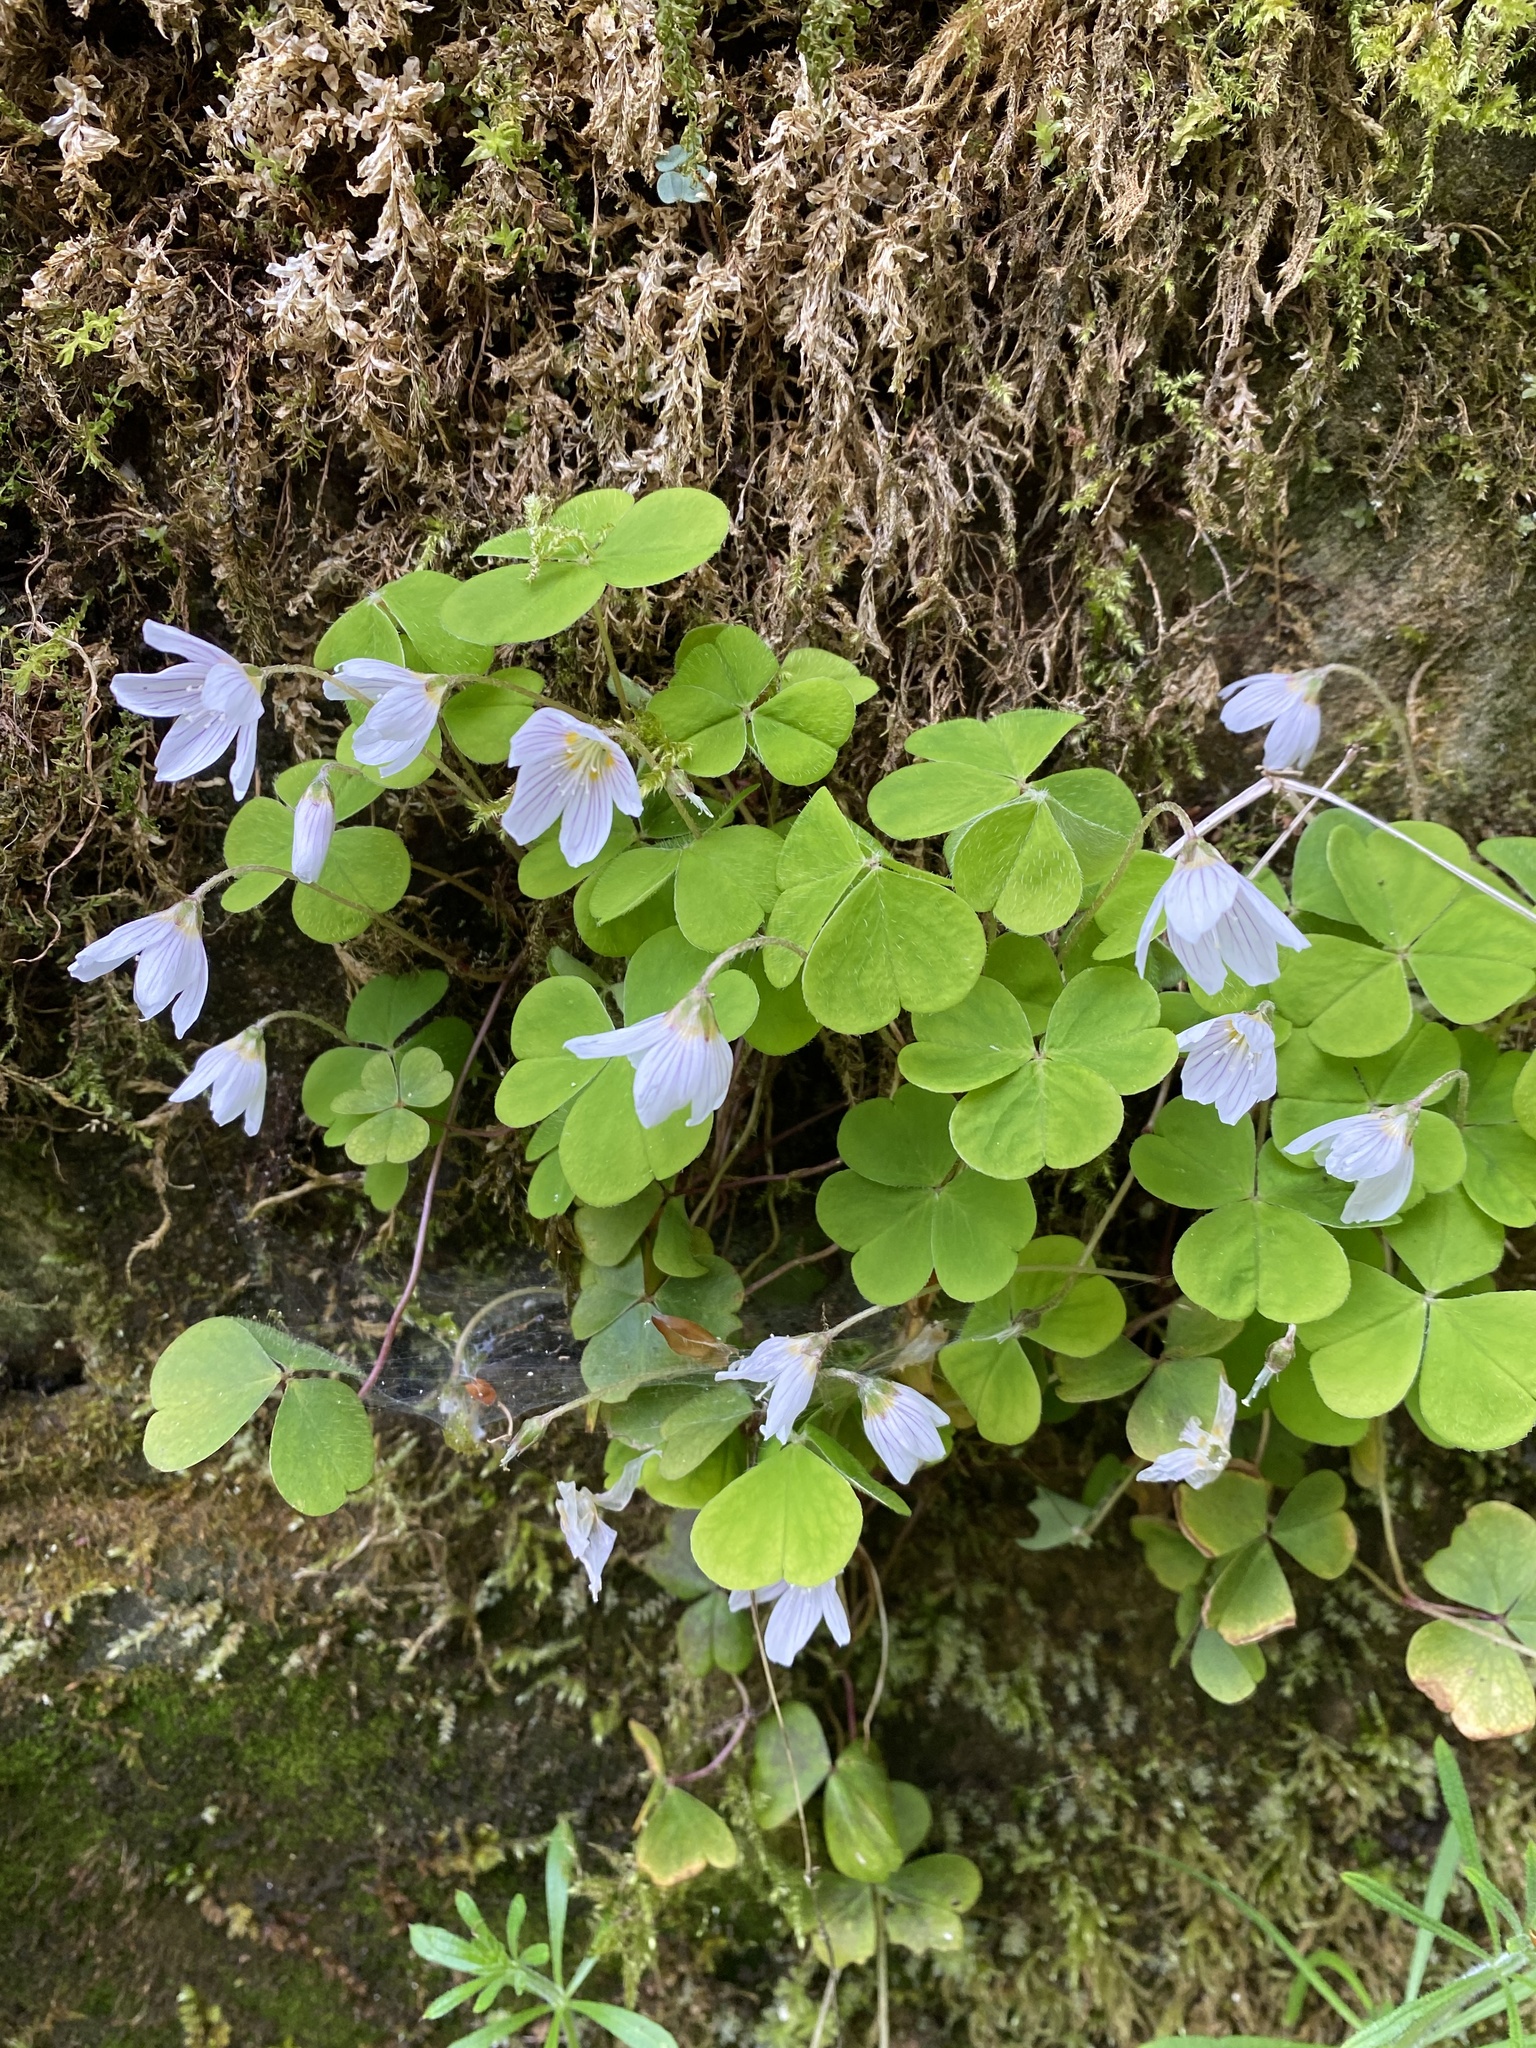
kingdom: Plantae
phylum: Tracheophyta
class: Magnoliopsida
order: Oxalidales
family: Oxalidaceae
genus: Oxalis
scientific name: Oxalis acetosella
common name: Wood-sorrel
